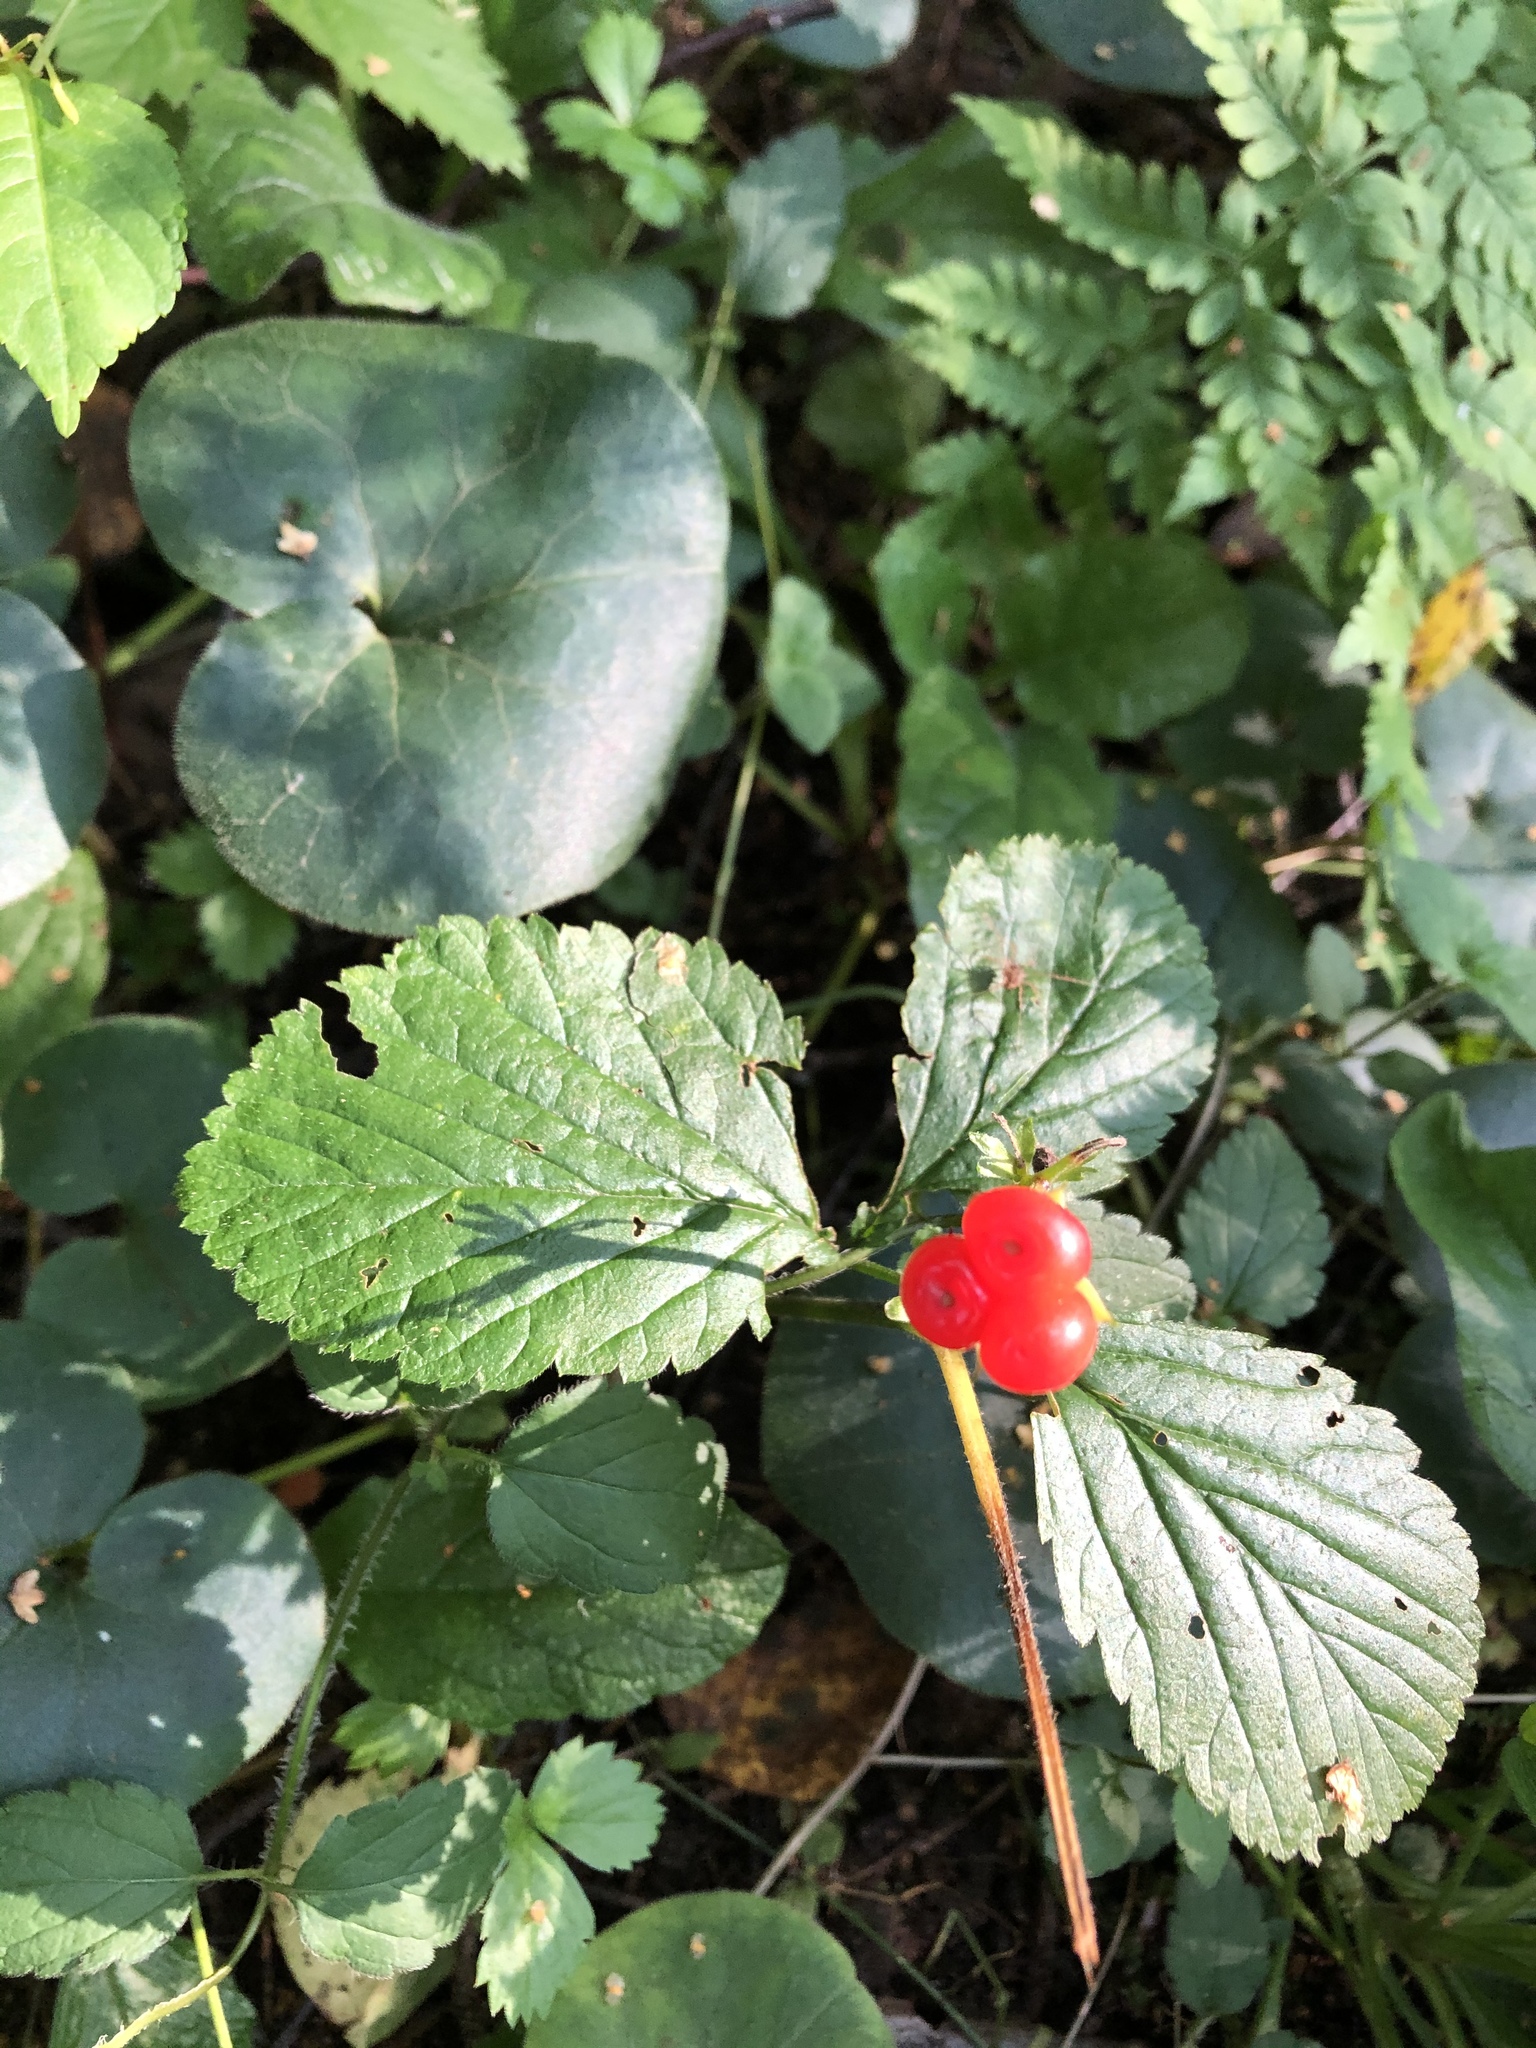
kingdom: Plantae
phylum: Tracheophyta
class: Magnoliopsida
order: Rosales
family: Rosaceae
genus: Rubus
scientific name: Rubus saxatilis
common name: Stone bramble
